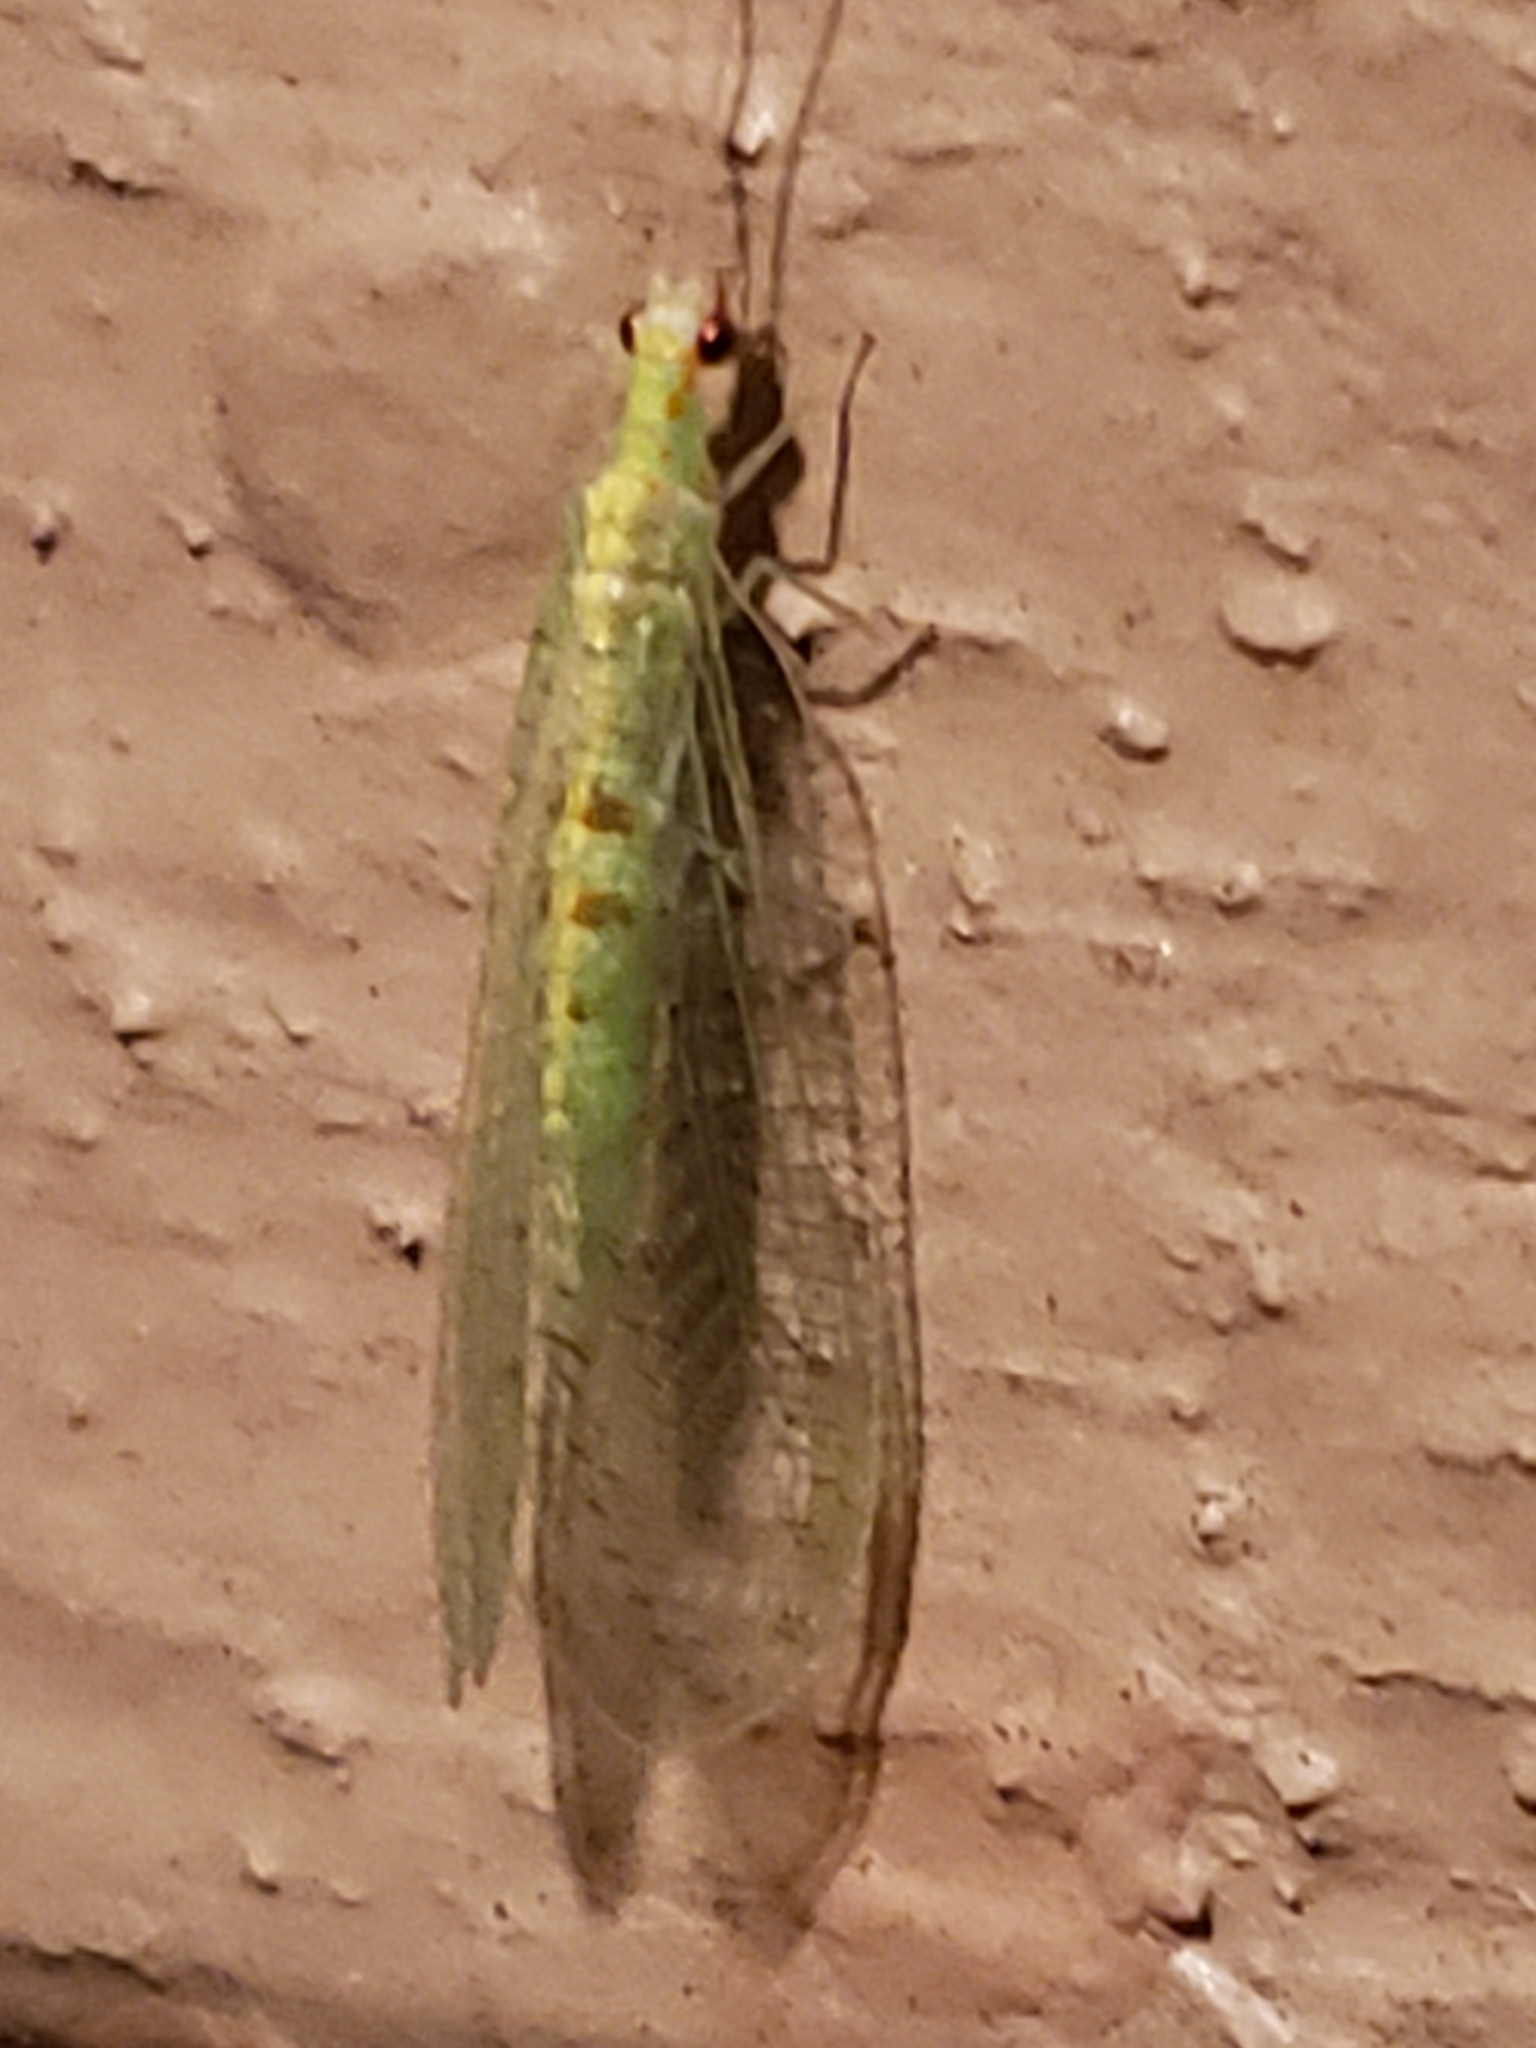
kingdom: Animalia
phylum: Arthropoda
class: Insecta
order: Neuroptera
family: Chrysopidae
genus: Chrysopa
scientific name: Chrysopa quadripunctata
